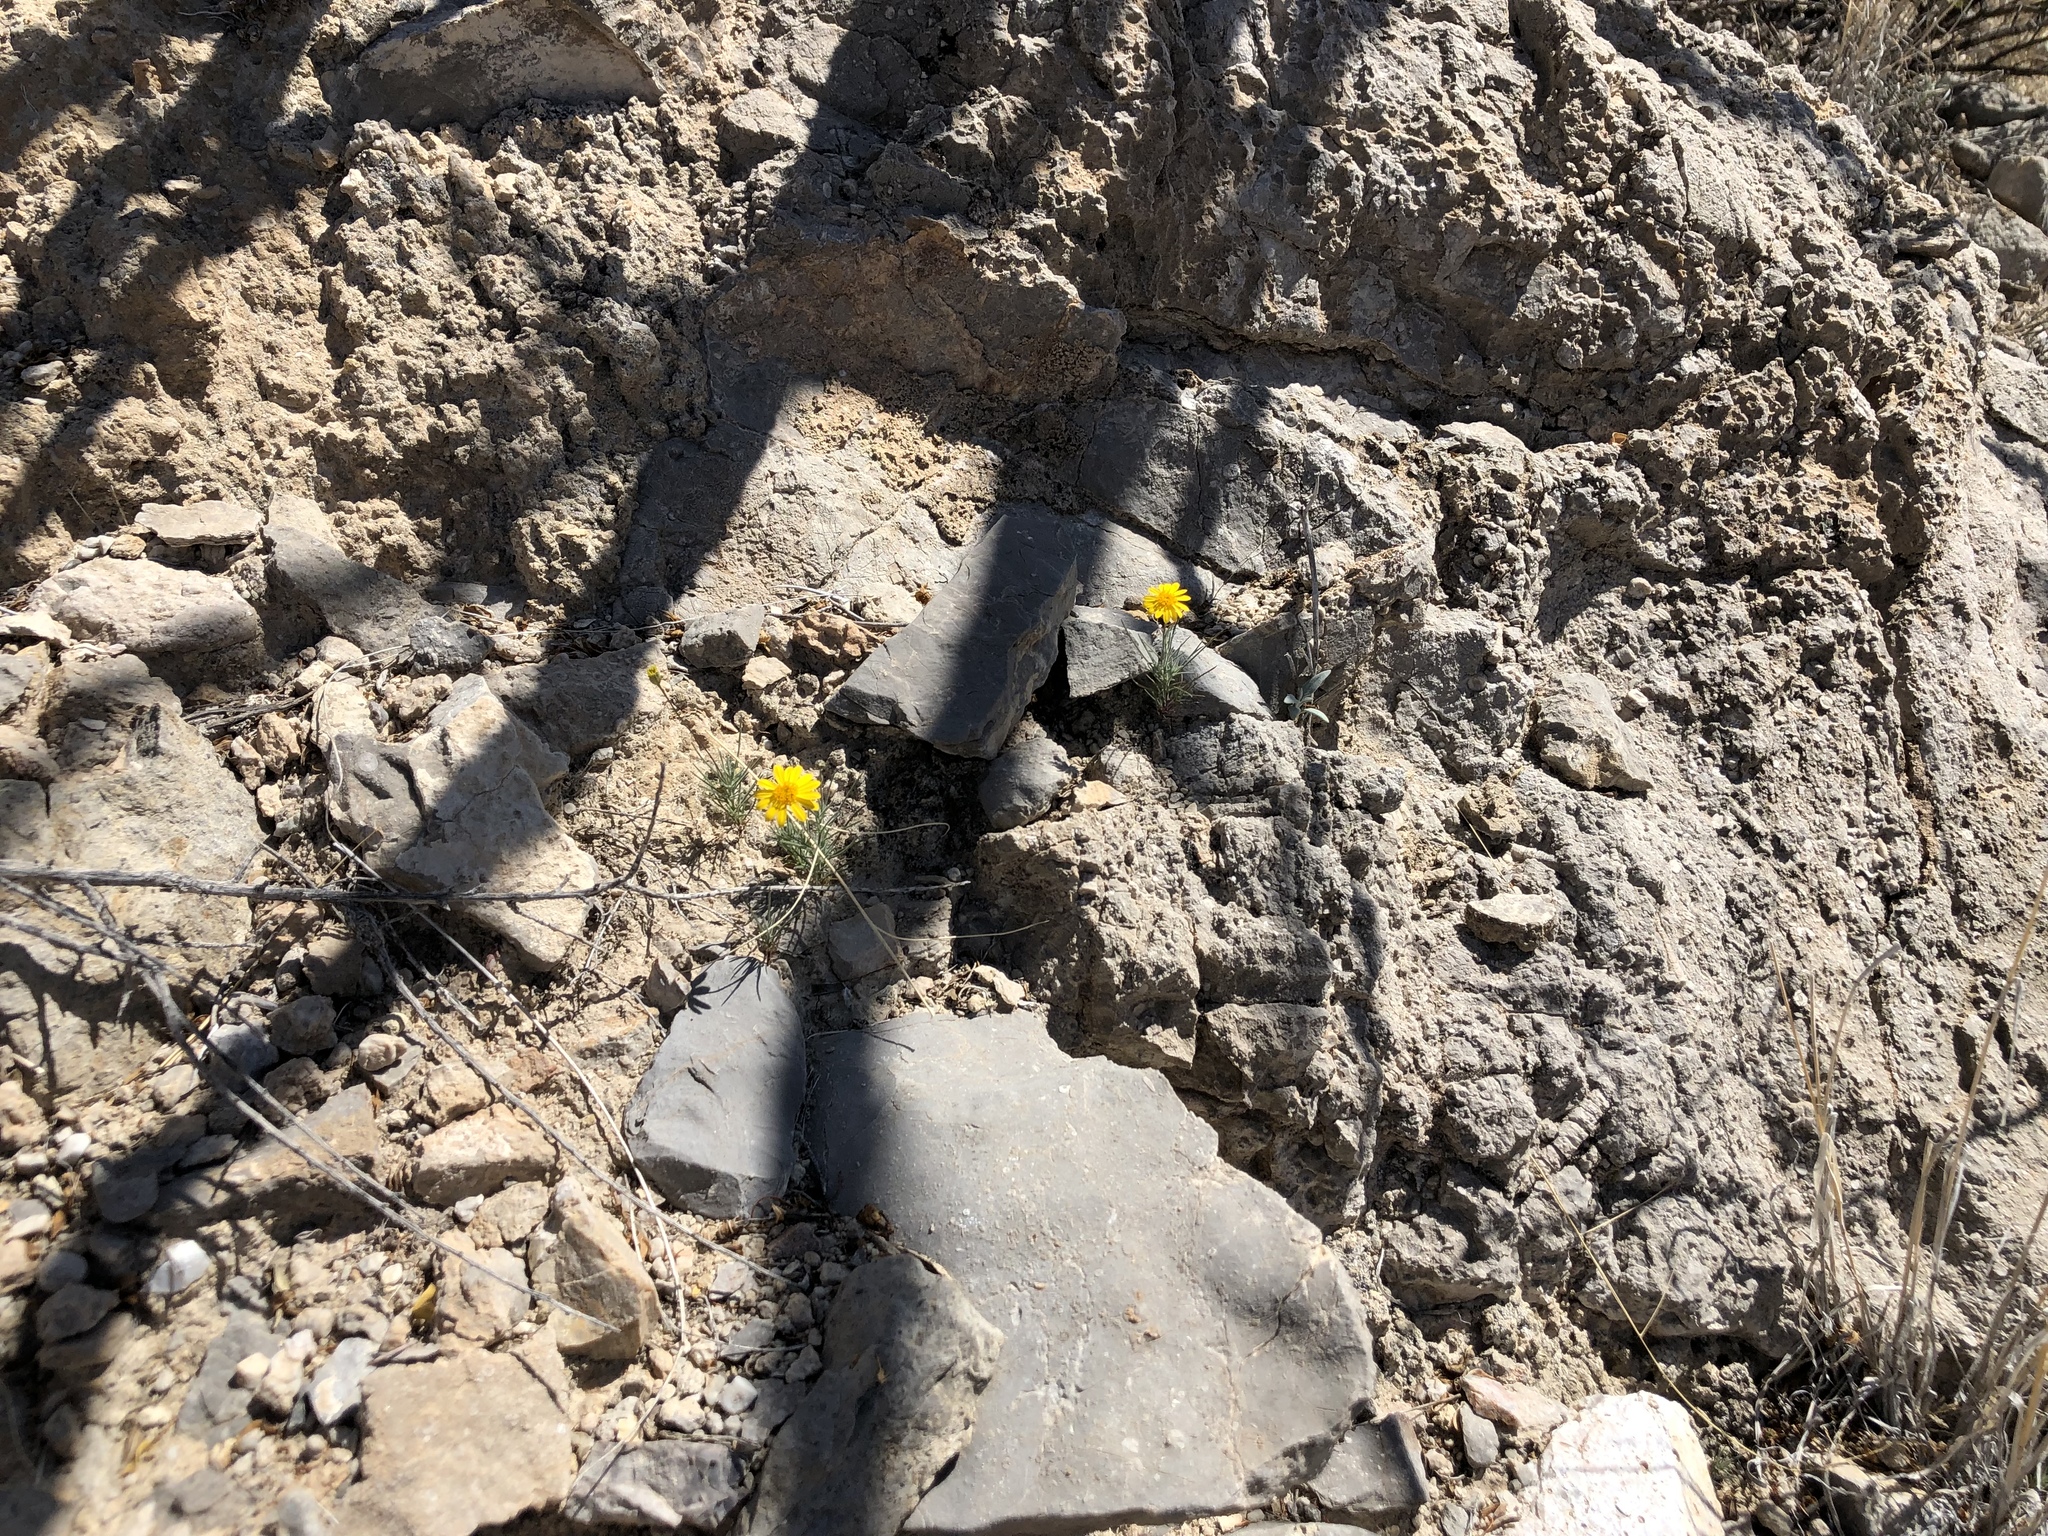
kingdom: Plantae
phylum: Tracheophyta
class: Magnoliopsida
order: Asterales
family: Asteraceae
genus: Thymophylla
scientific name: Thymophylla pentachaeta
